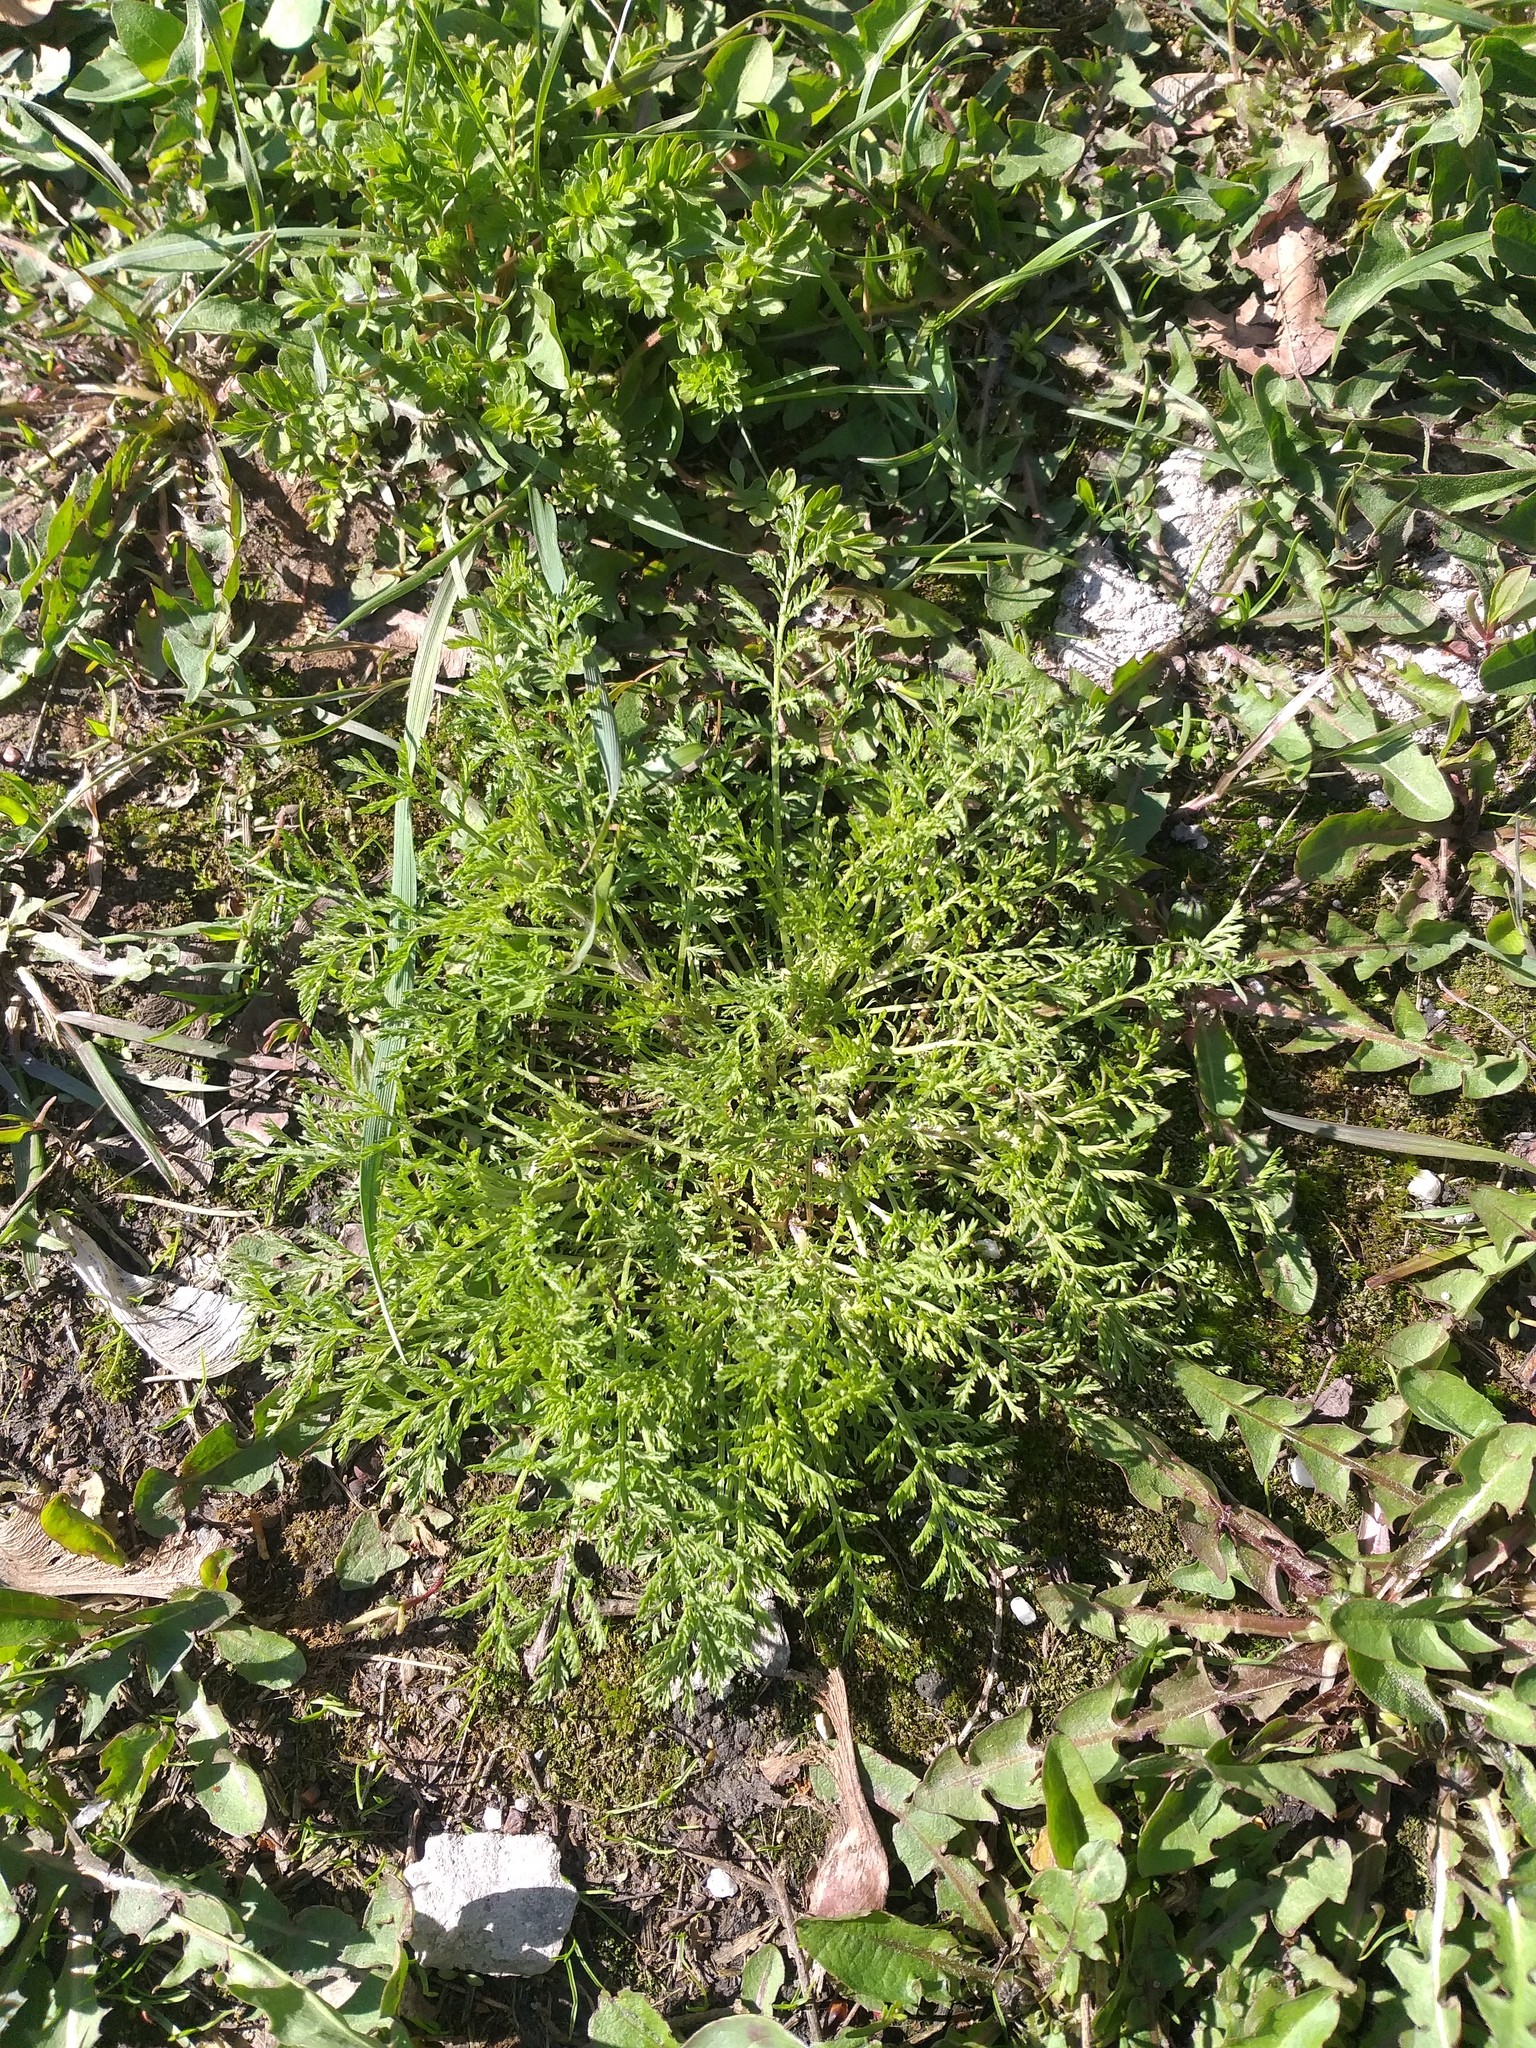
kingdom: Plantae
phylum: Tracheophyta
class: Magnoliopsida
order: Asterales
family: Asteraceae
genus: Achillea
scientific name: Achillea nobilis
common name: Noble yarrow
